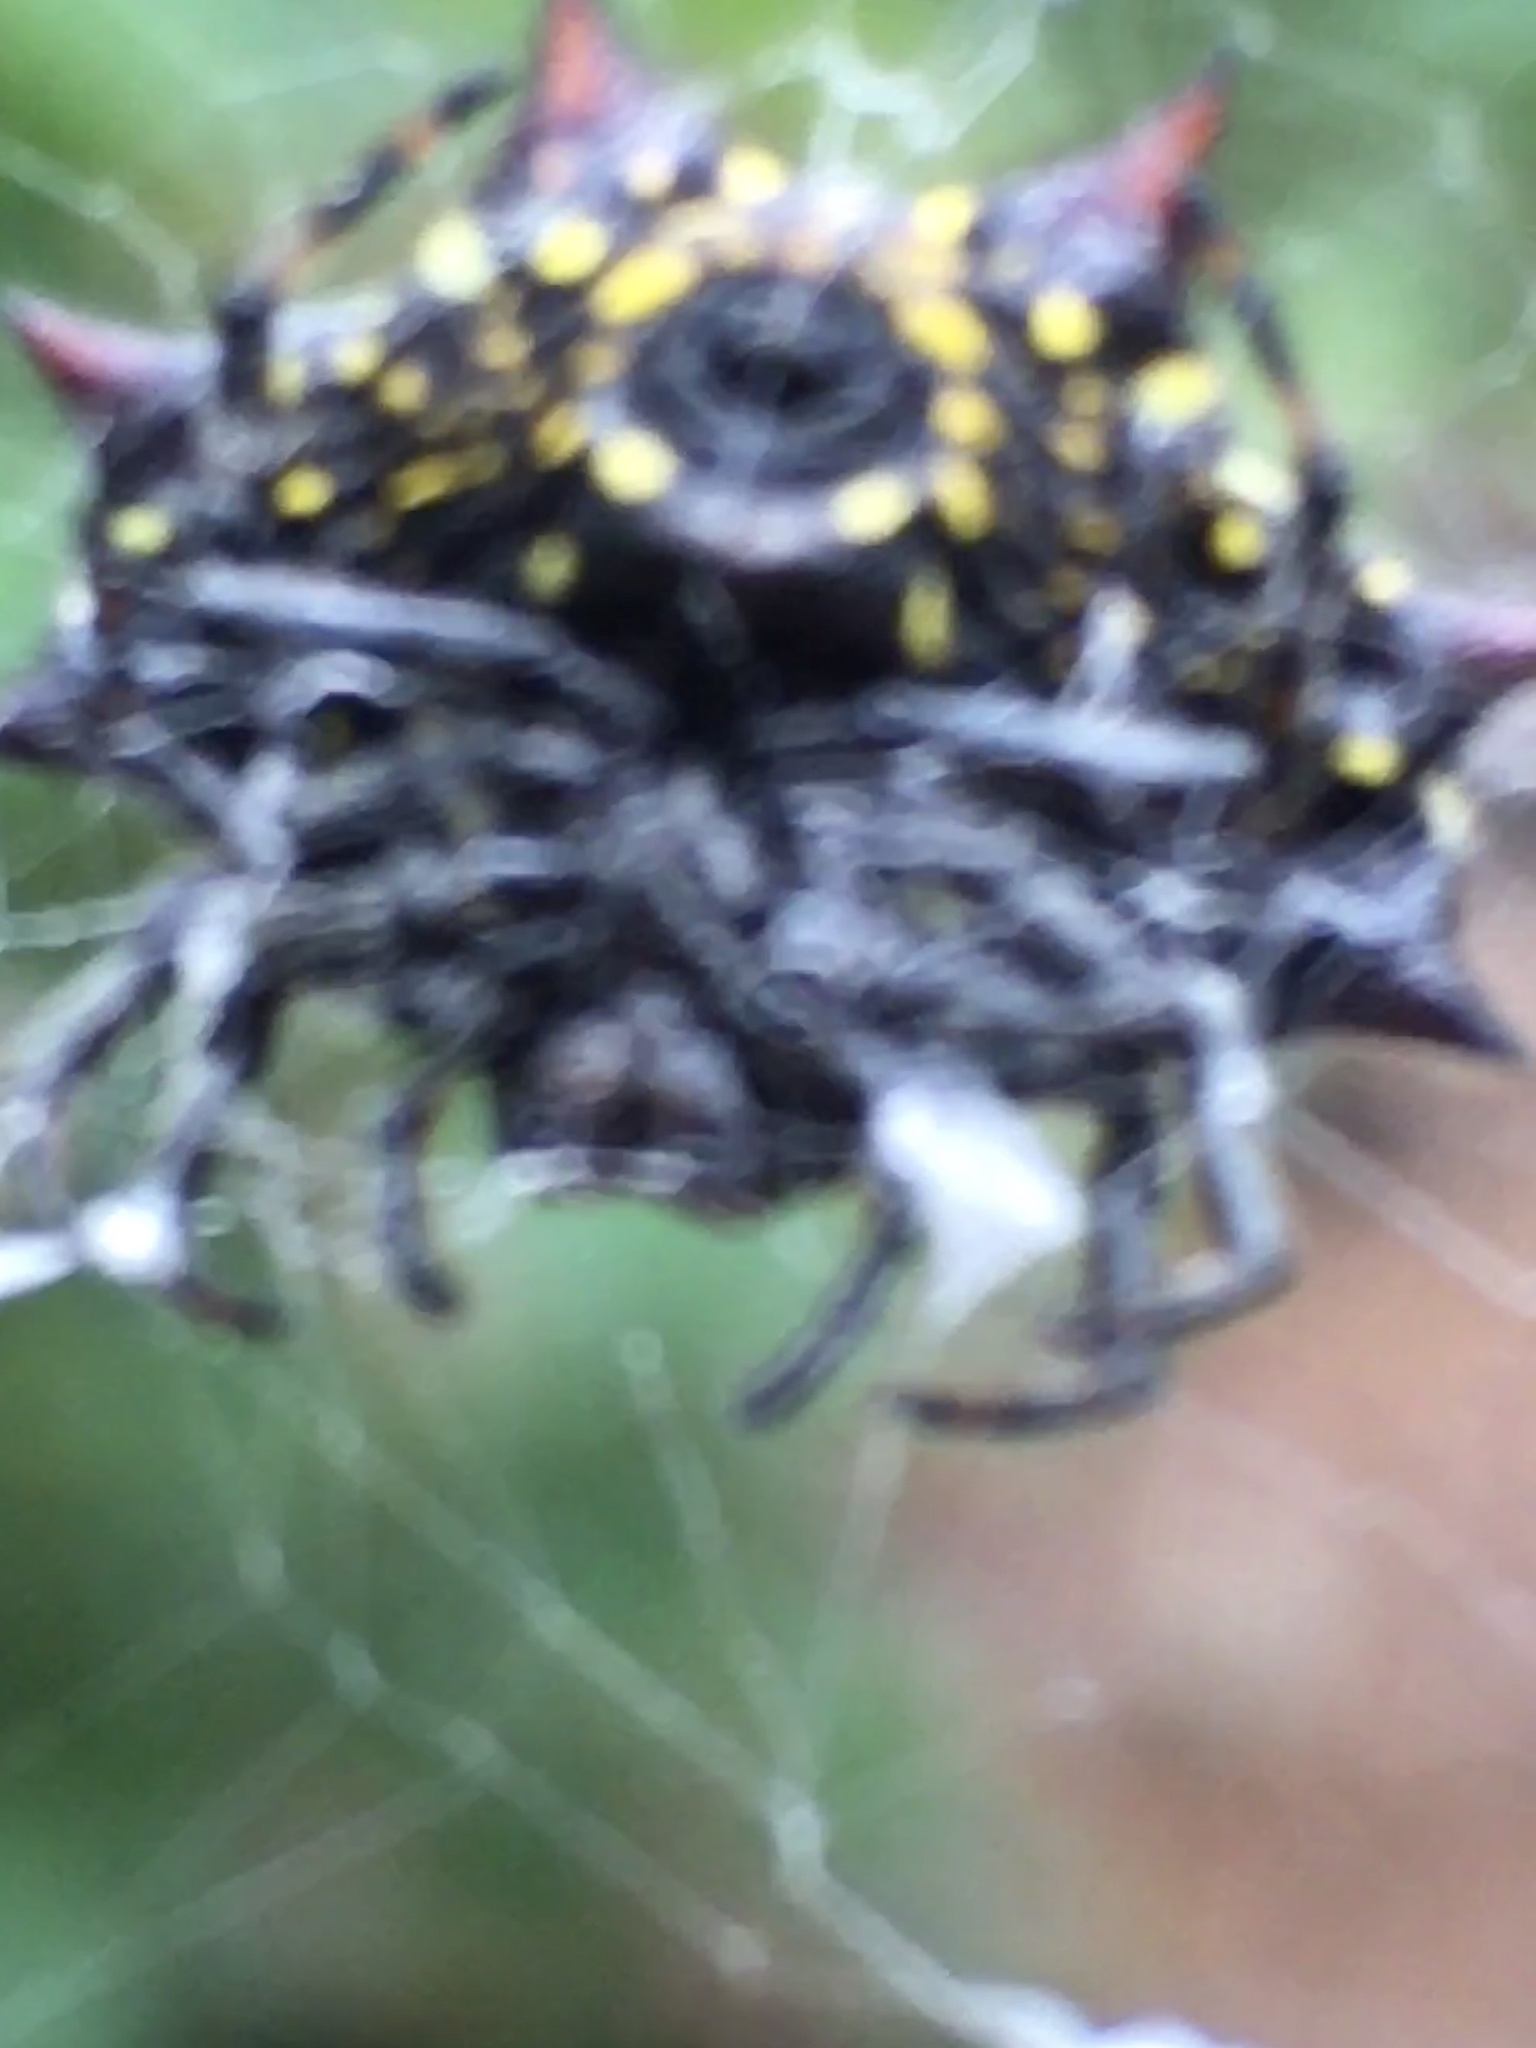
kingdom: Animalia
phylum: Arthropoda
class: Arachnida
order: Araneae
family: Araneidae
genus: Gasteracantha
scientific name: Gasteracantha cancriformis
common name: Orb weavers
